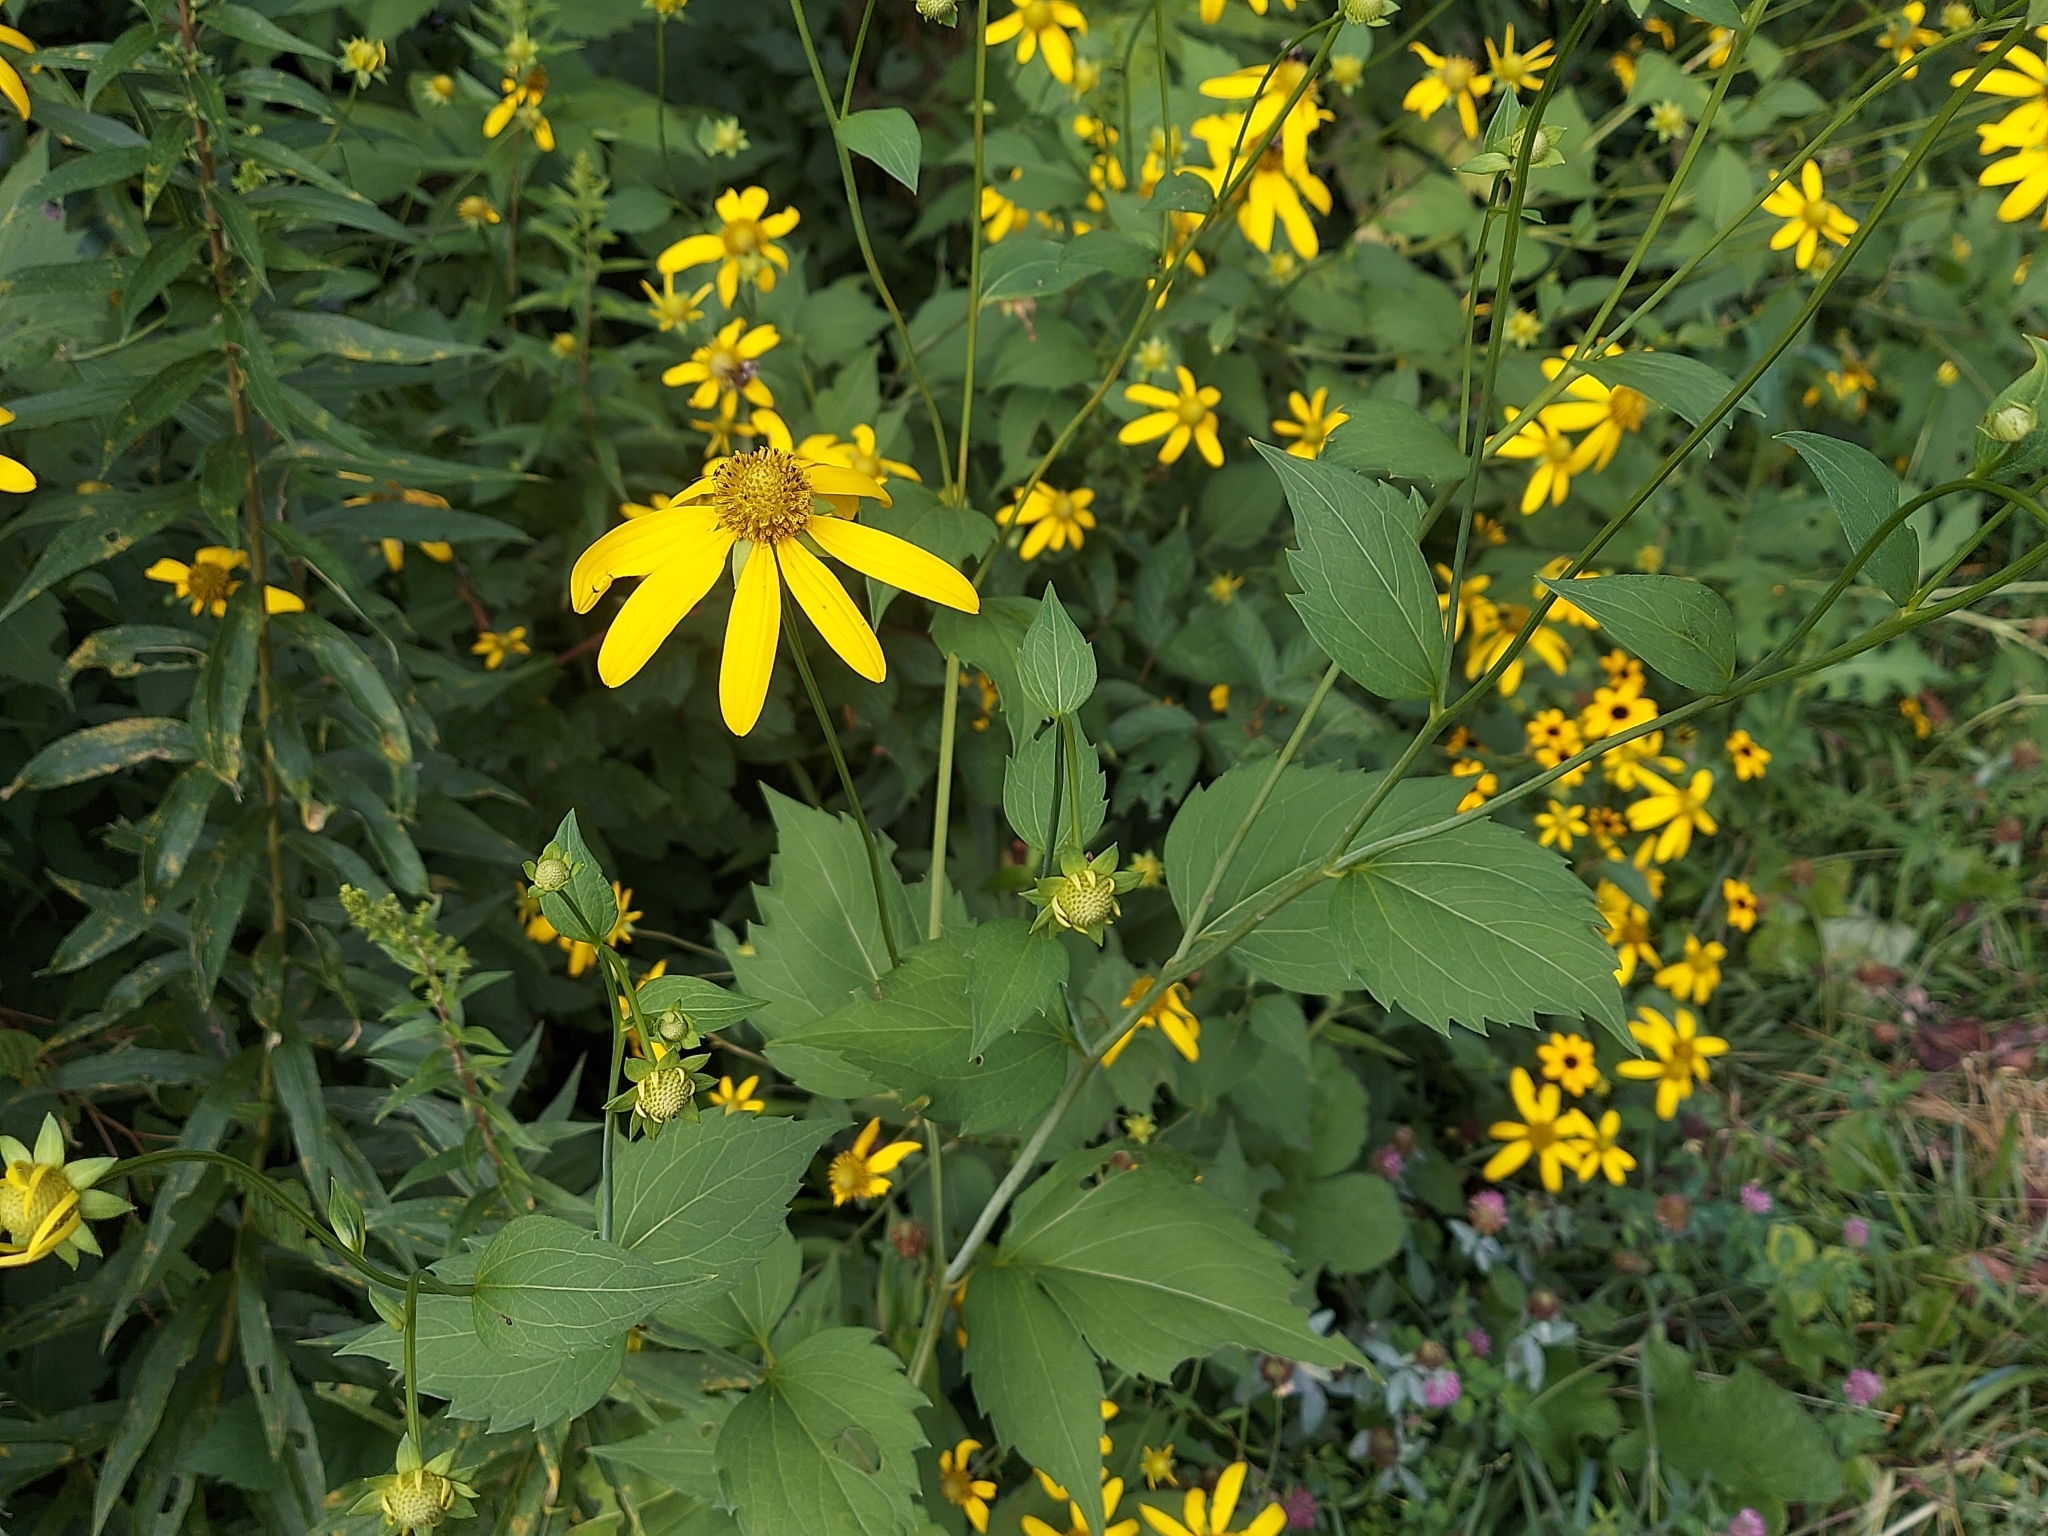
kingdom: Plantae
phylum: Tracheophyta
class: Magnoliopsida
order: Asterales
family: Asteraceae
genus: Rudbeckia
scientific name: Rudbeckia laciniata
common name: Coneflower
